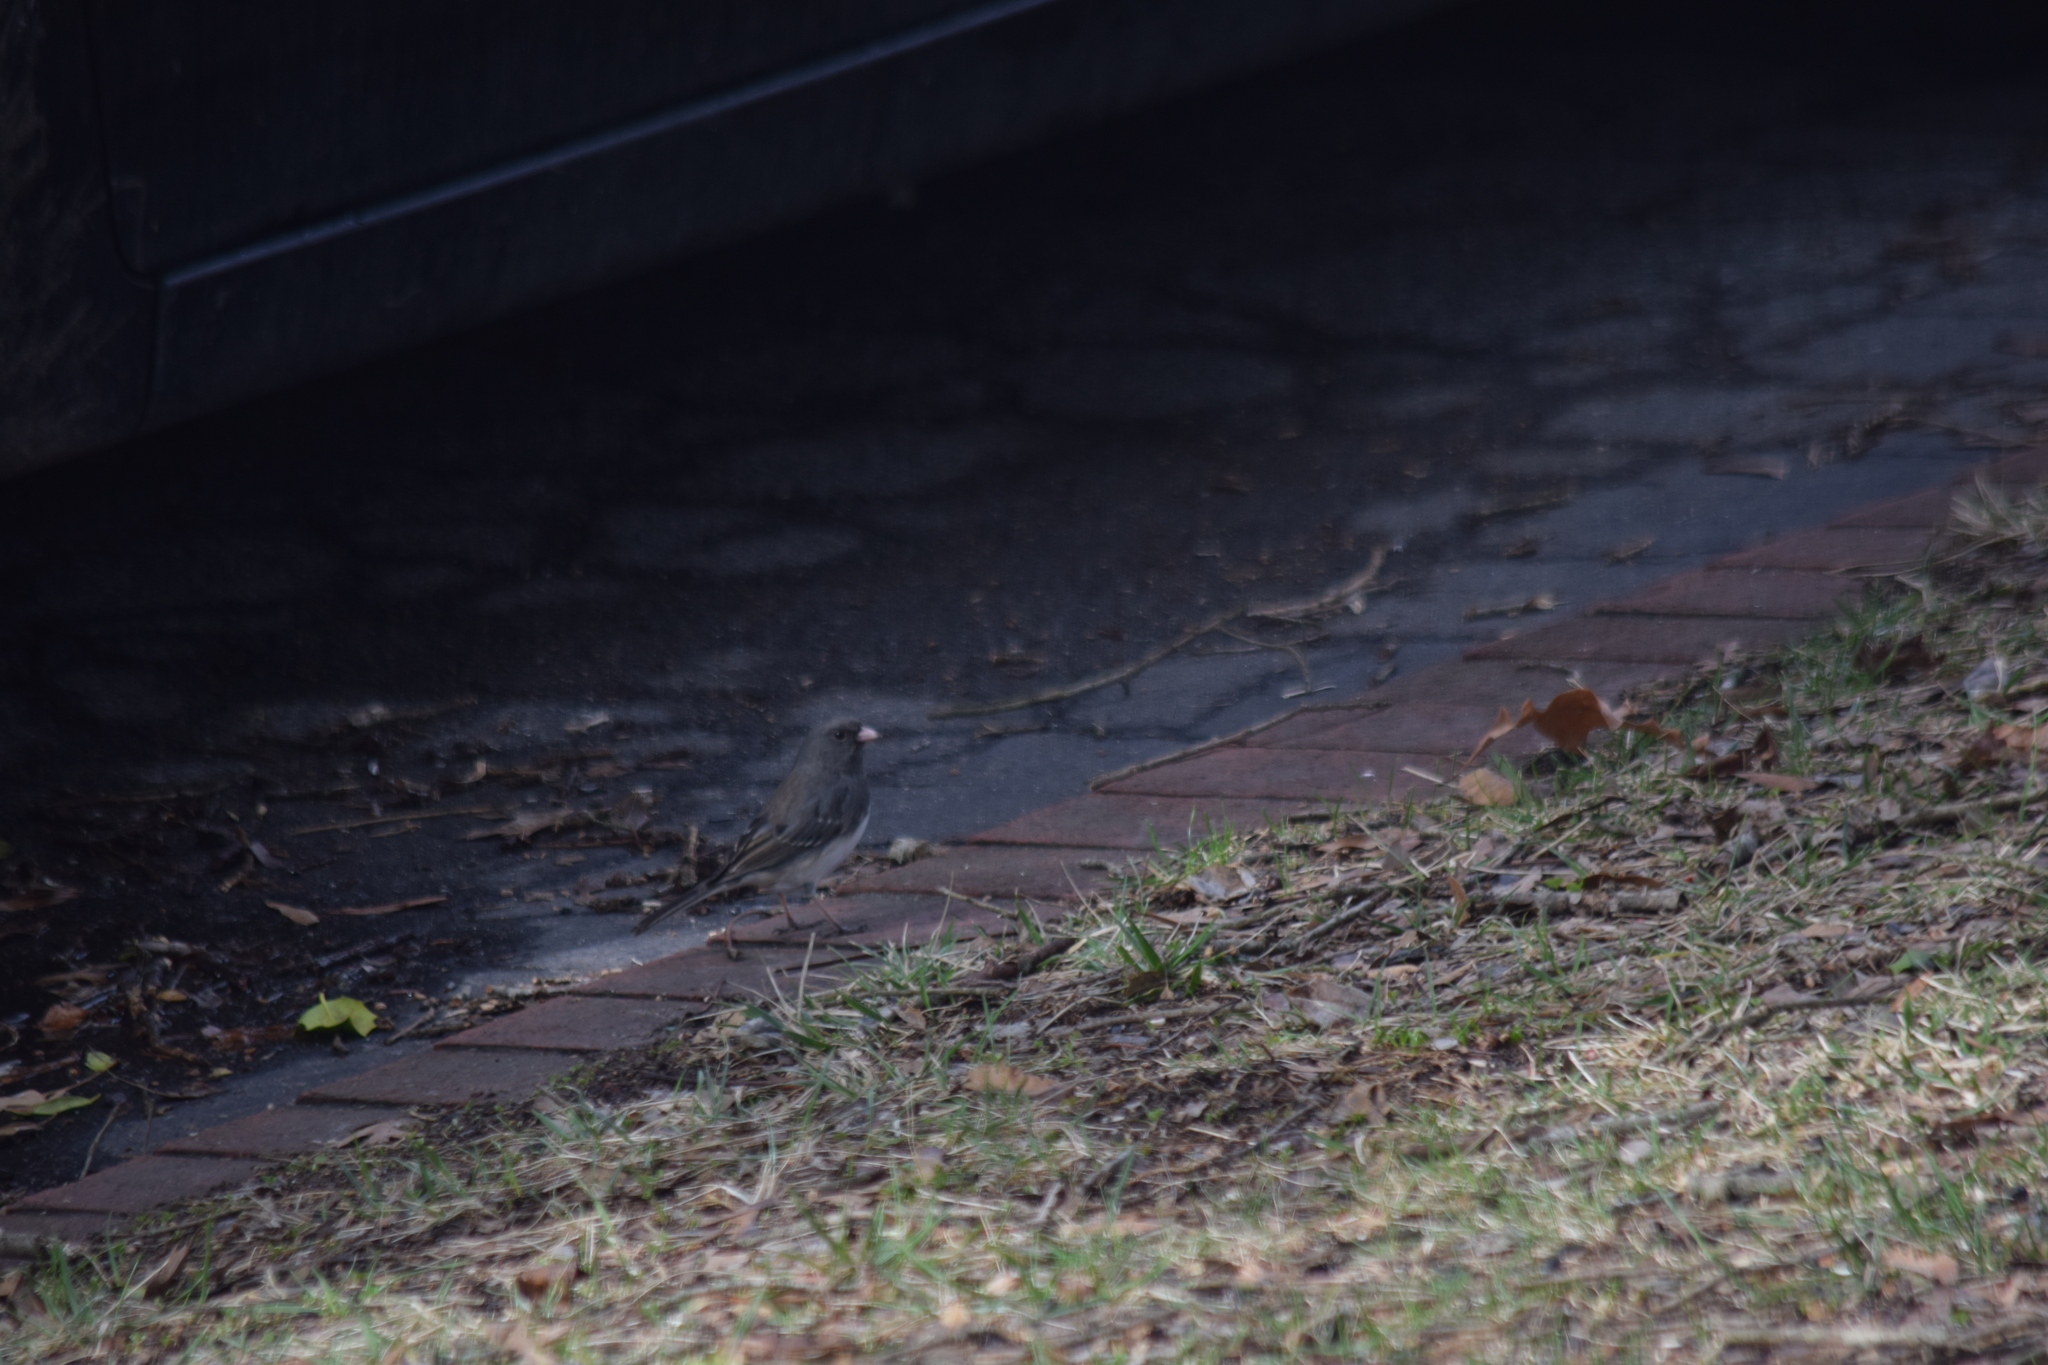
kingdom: Animalia
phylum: Chordata
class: Aves
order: Passeriformes
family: Passerellidae
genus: Junco
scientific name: Junco hyemalis
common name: Dark-eyed junco
